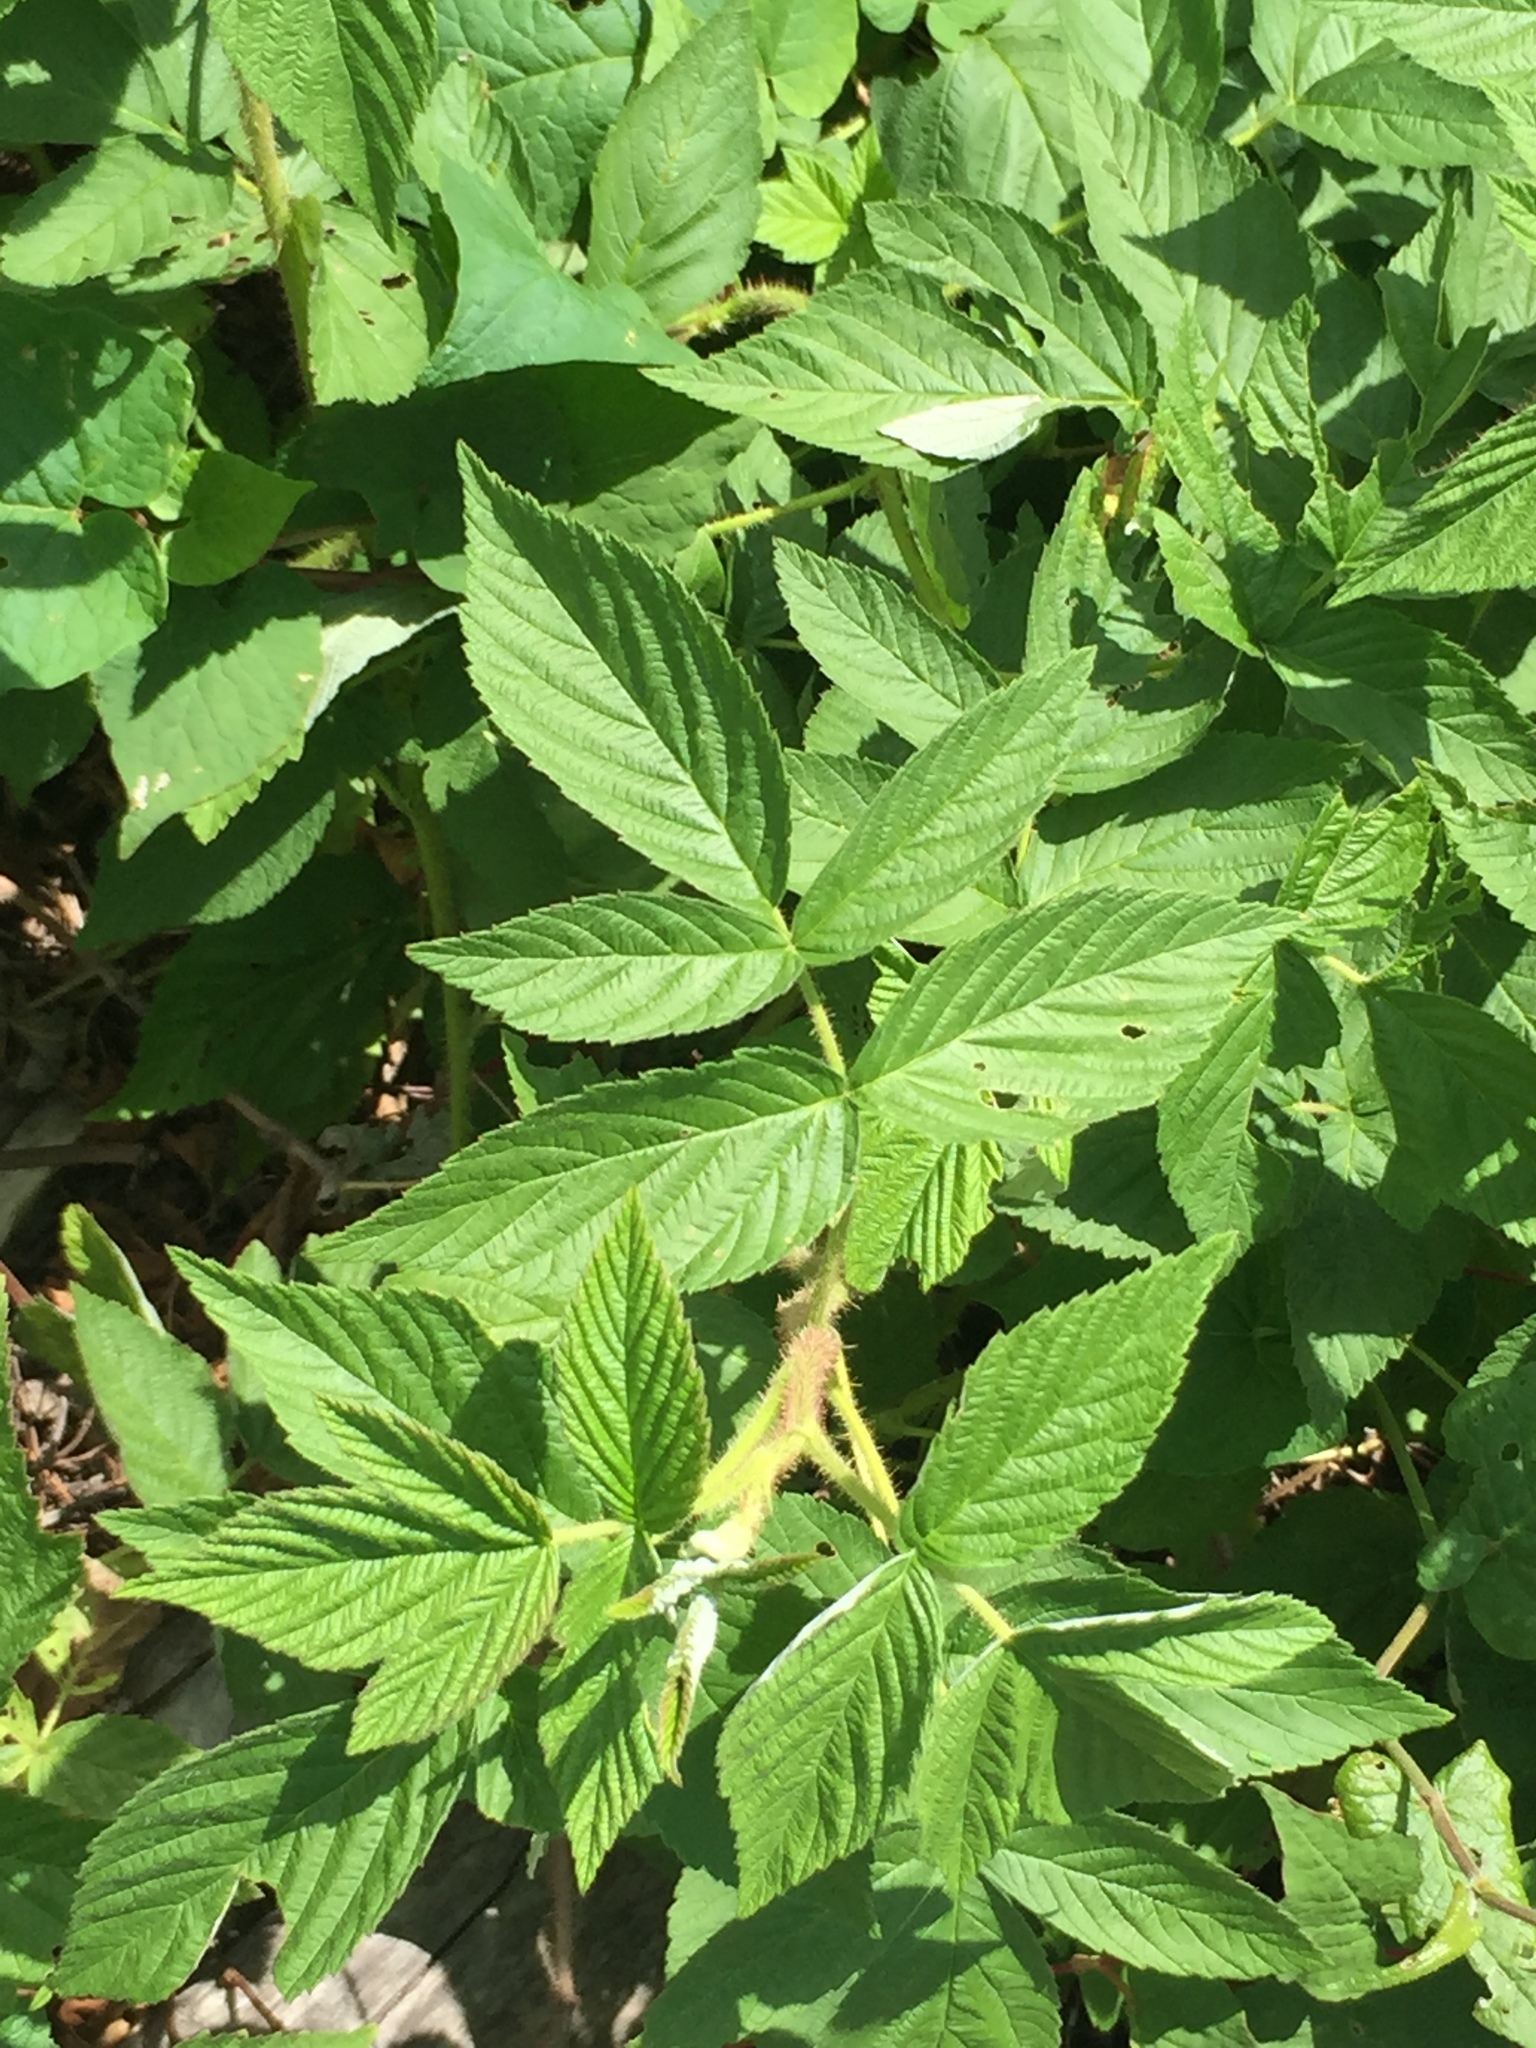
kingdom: Plantae
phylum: Tracheophyta
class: Magnoliopsida
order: Rosales
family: Rosaceae
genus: Rubus
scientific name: Rubus idaeus
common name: Raspberry
